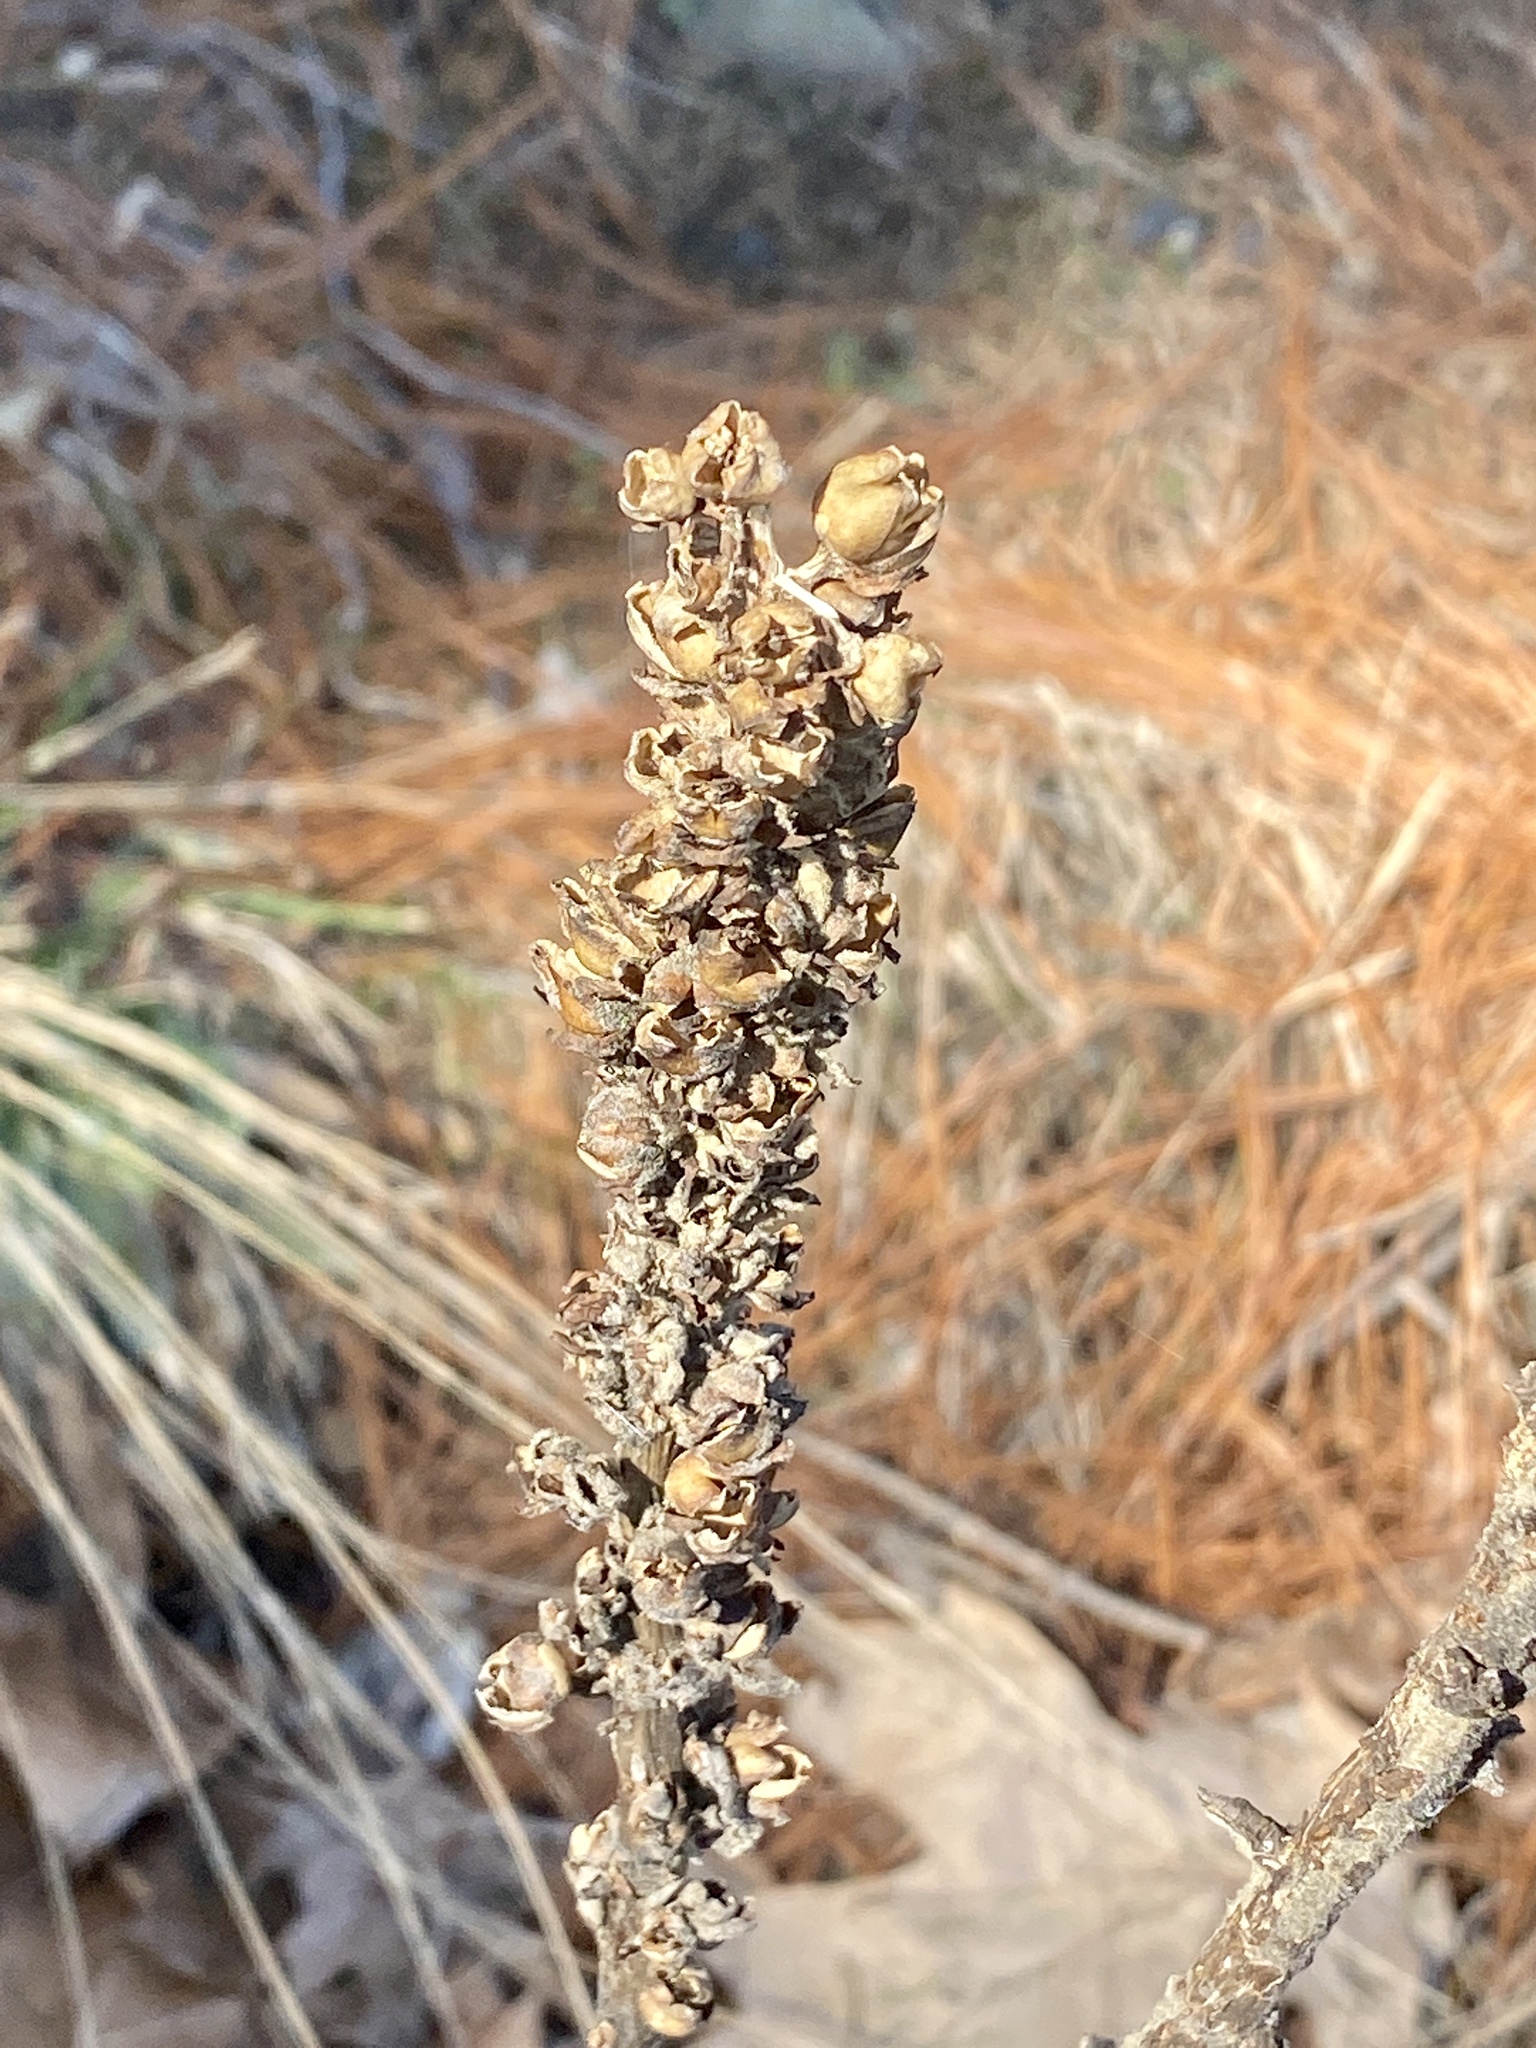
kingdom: Plantae
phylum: Tracheophyta
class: Magnoliopsida
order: Lamiales
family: Scrophulariaceae
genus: Verbascum
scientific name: Verbascum thapsus
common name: Common mullein
